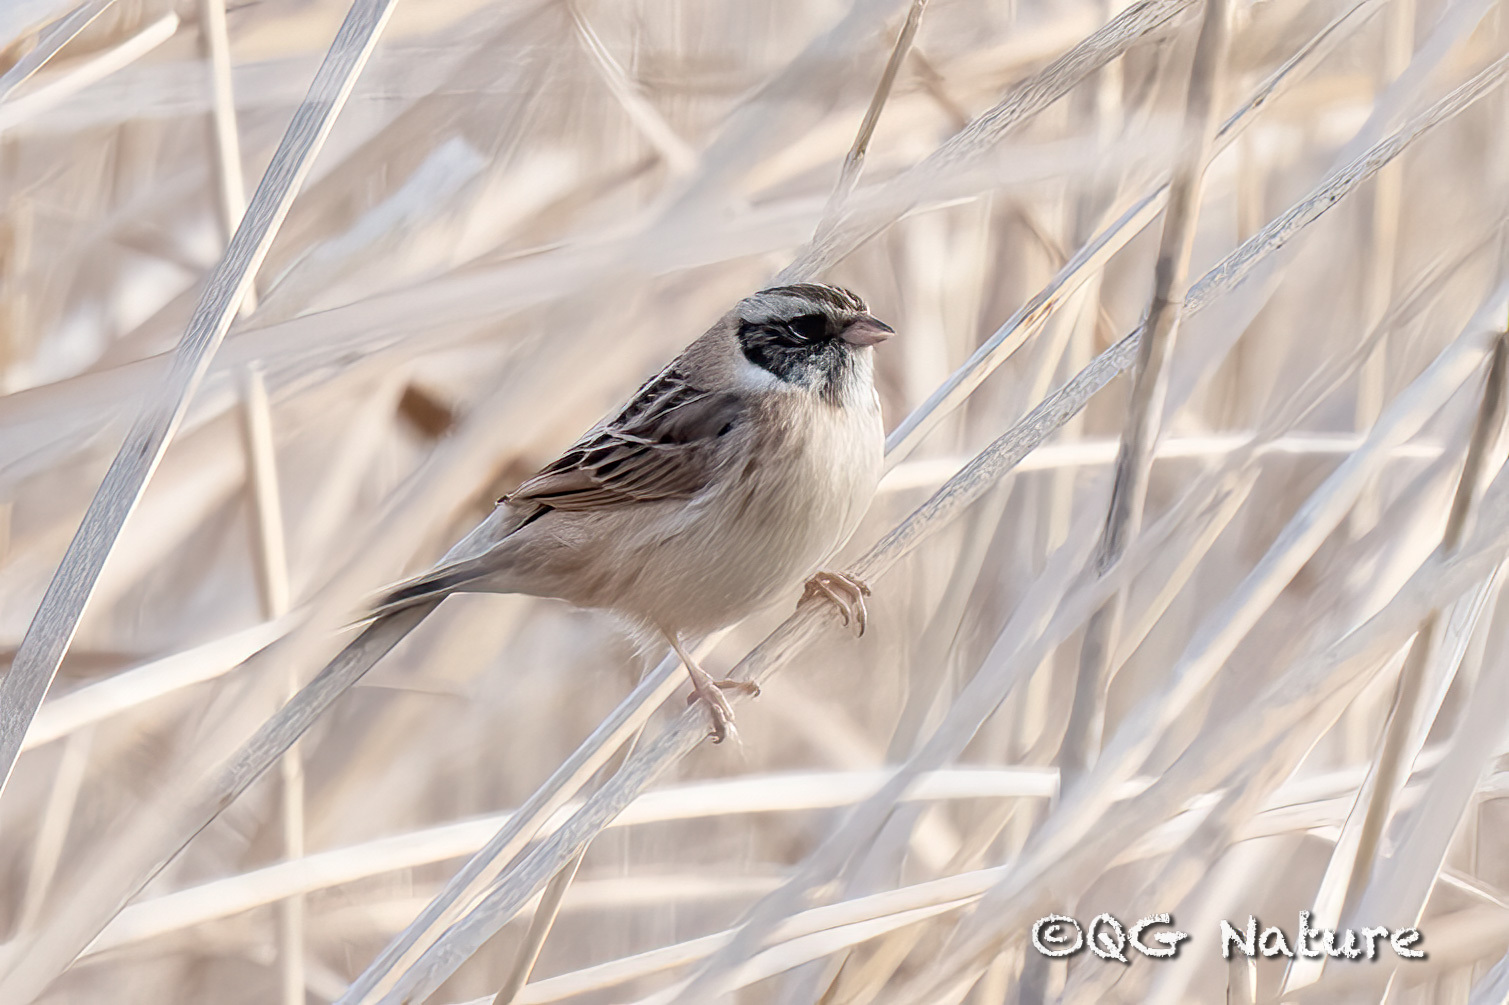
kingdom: Animalia
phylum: Chordata
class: Aves
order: Passeriformes
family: Emberizidae
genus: Emberiza
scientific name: Emberiza yessoensis
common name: Japanese reed bunting
